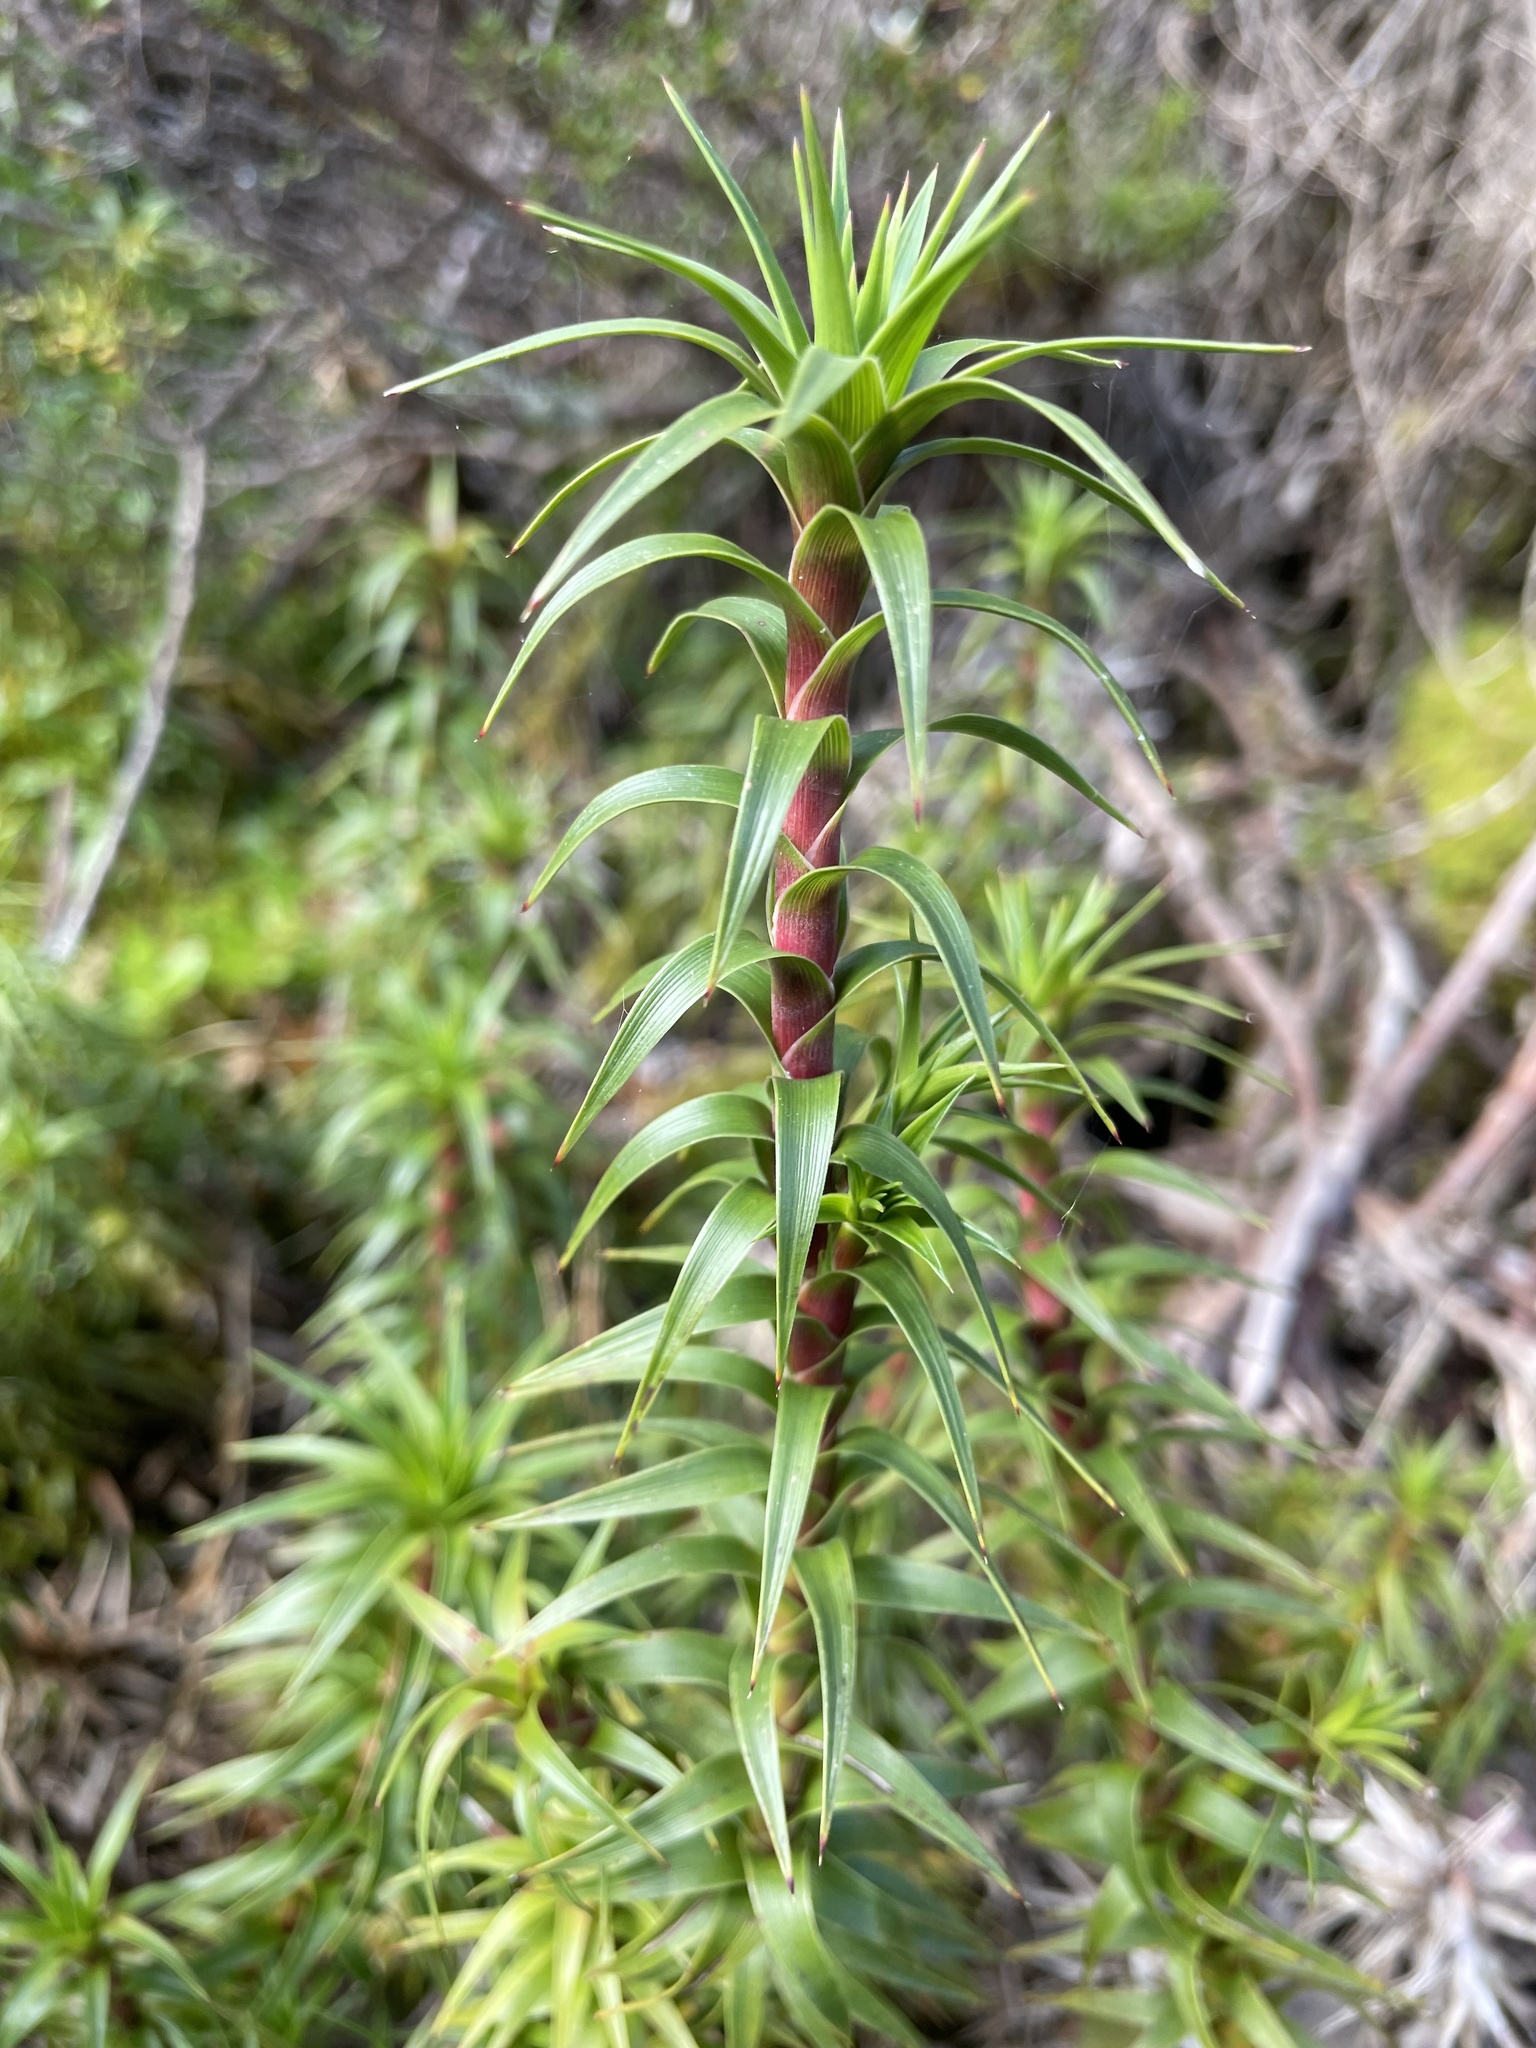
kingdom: Plantae
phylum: Tracheophyta
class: Magnoliopsida
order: Ericales
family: Ericaceae
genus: Dracophyllum
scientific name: Dracophyllum continentis
